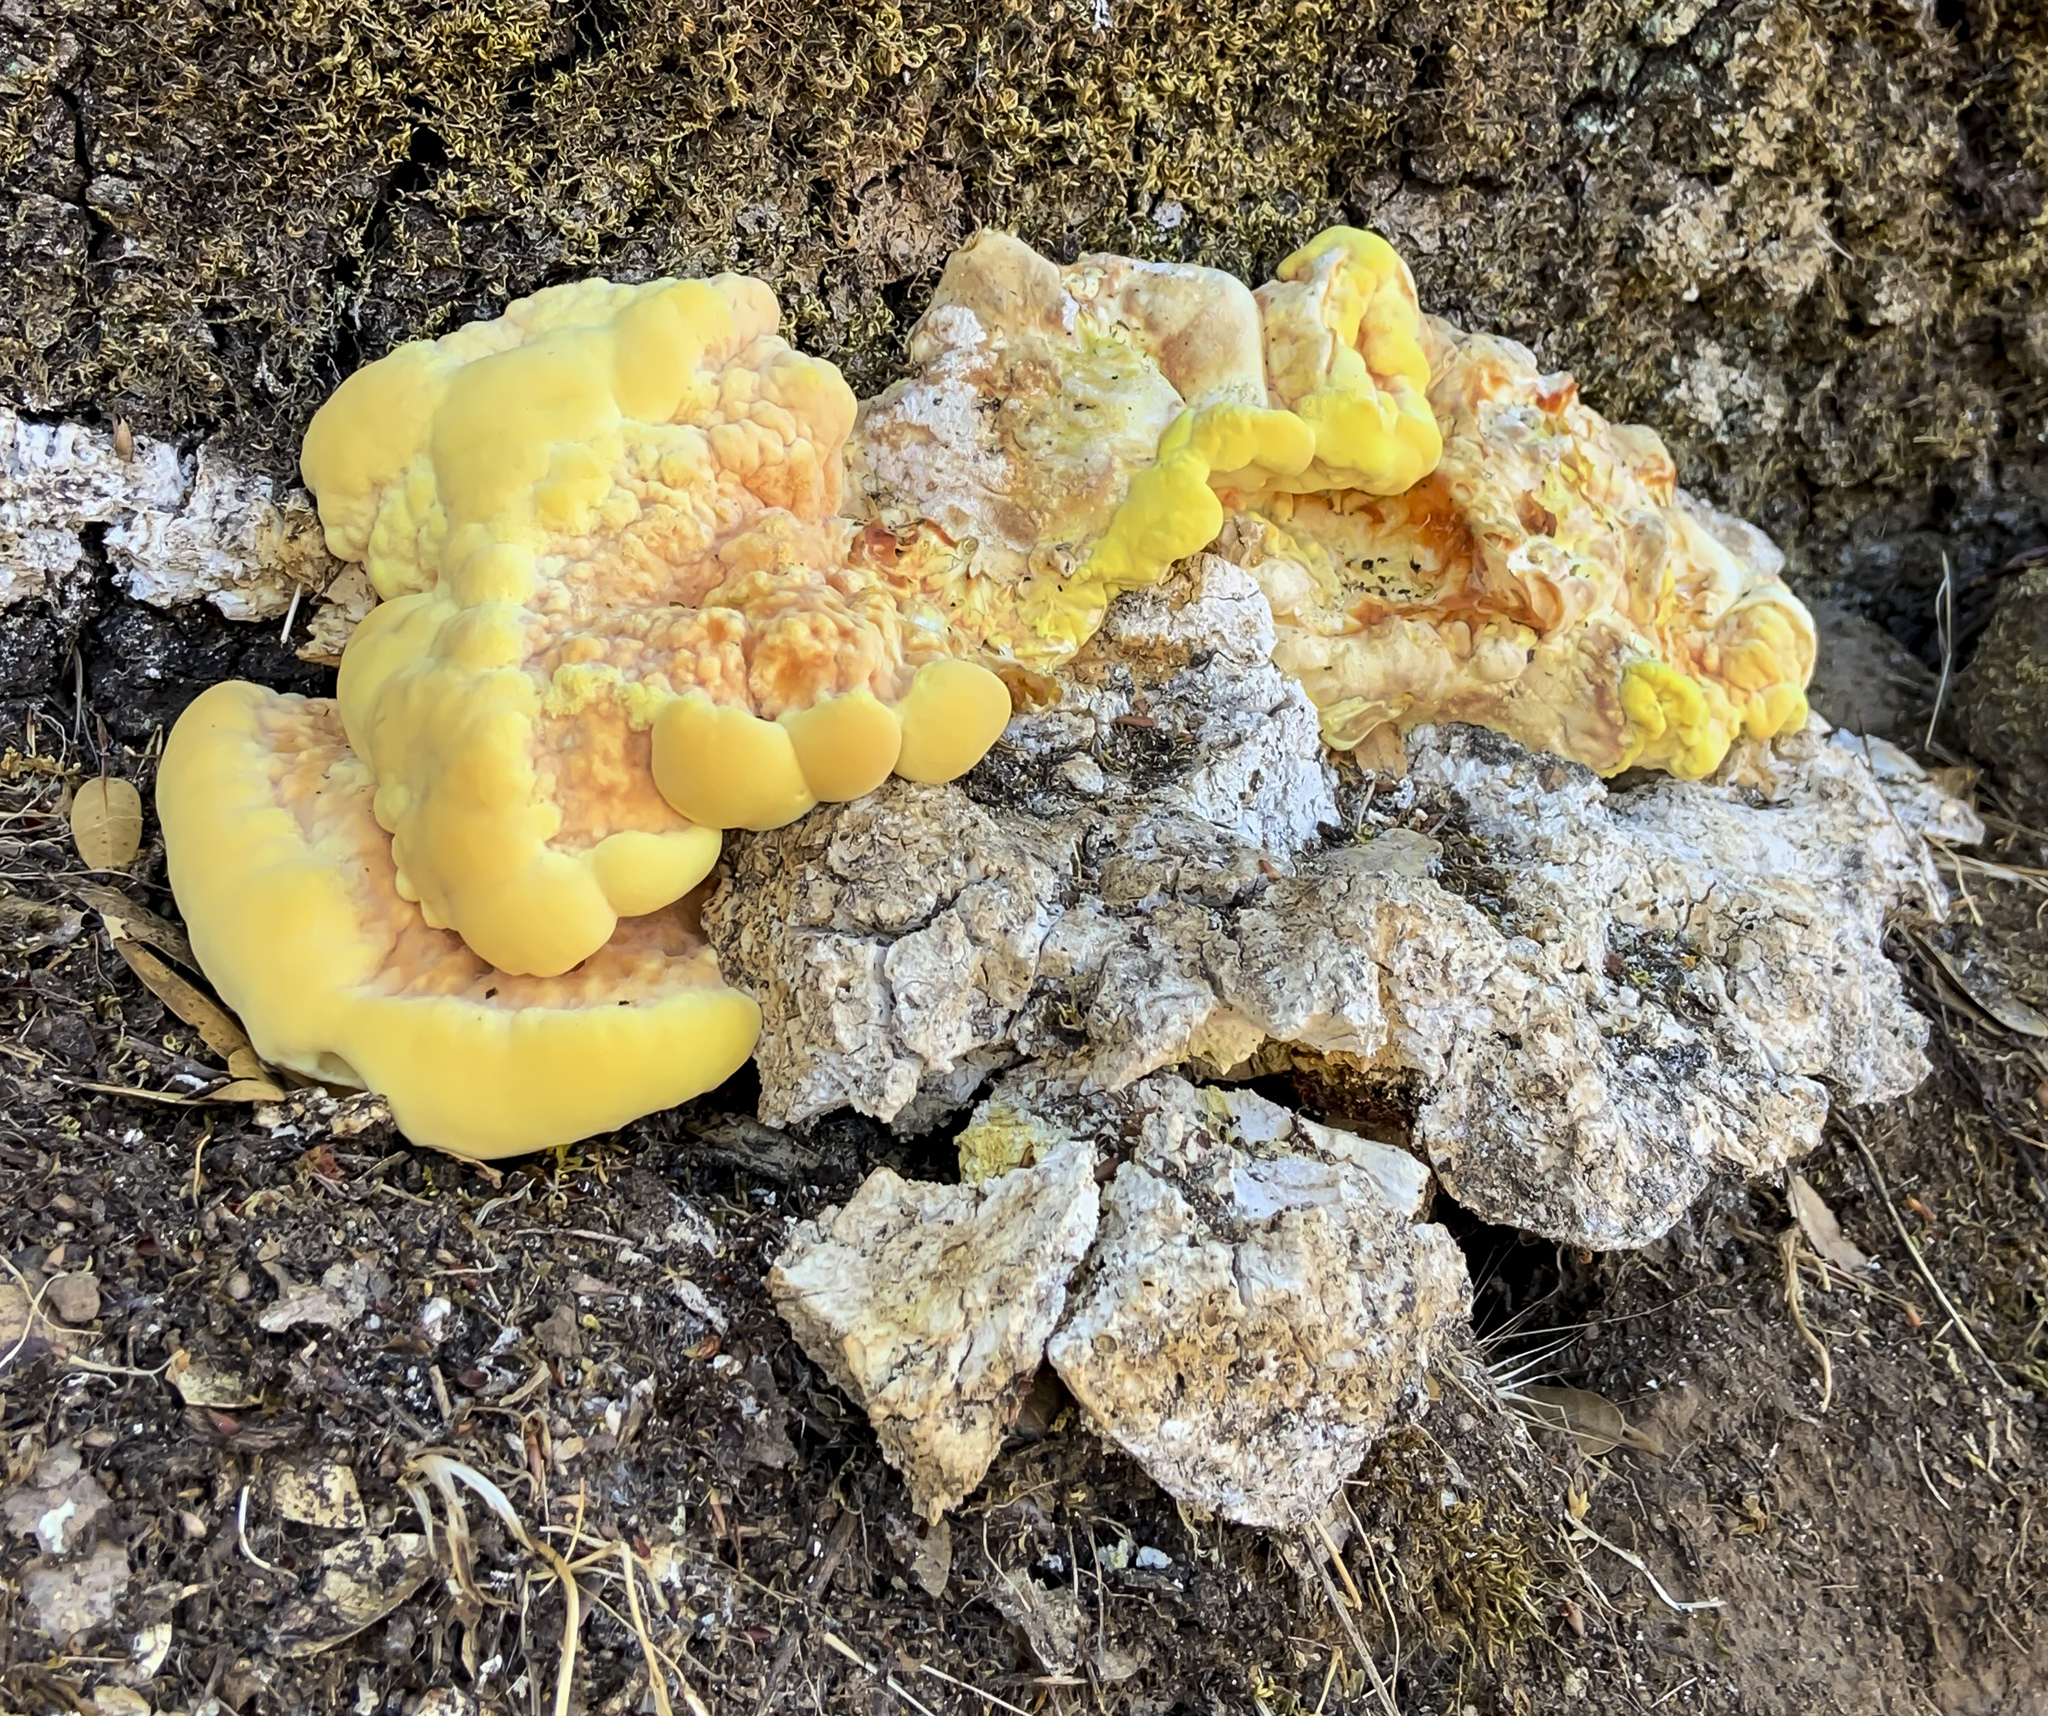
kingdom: Fungi
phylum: Basidiomycota
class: Agaricomycetes
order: Polyporales
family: Laetiporaceae
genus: Laetiporus
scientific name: Laetiporus gilbertsonii
